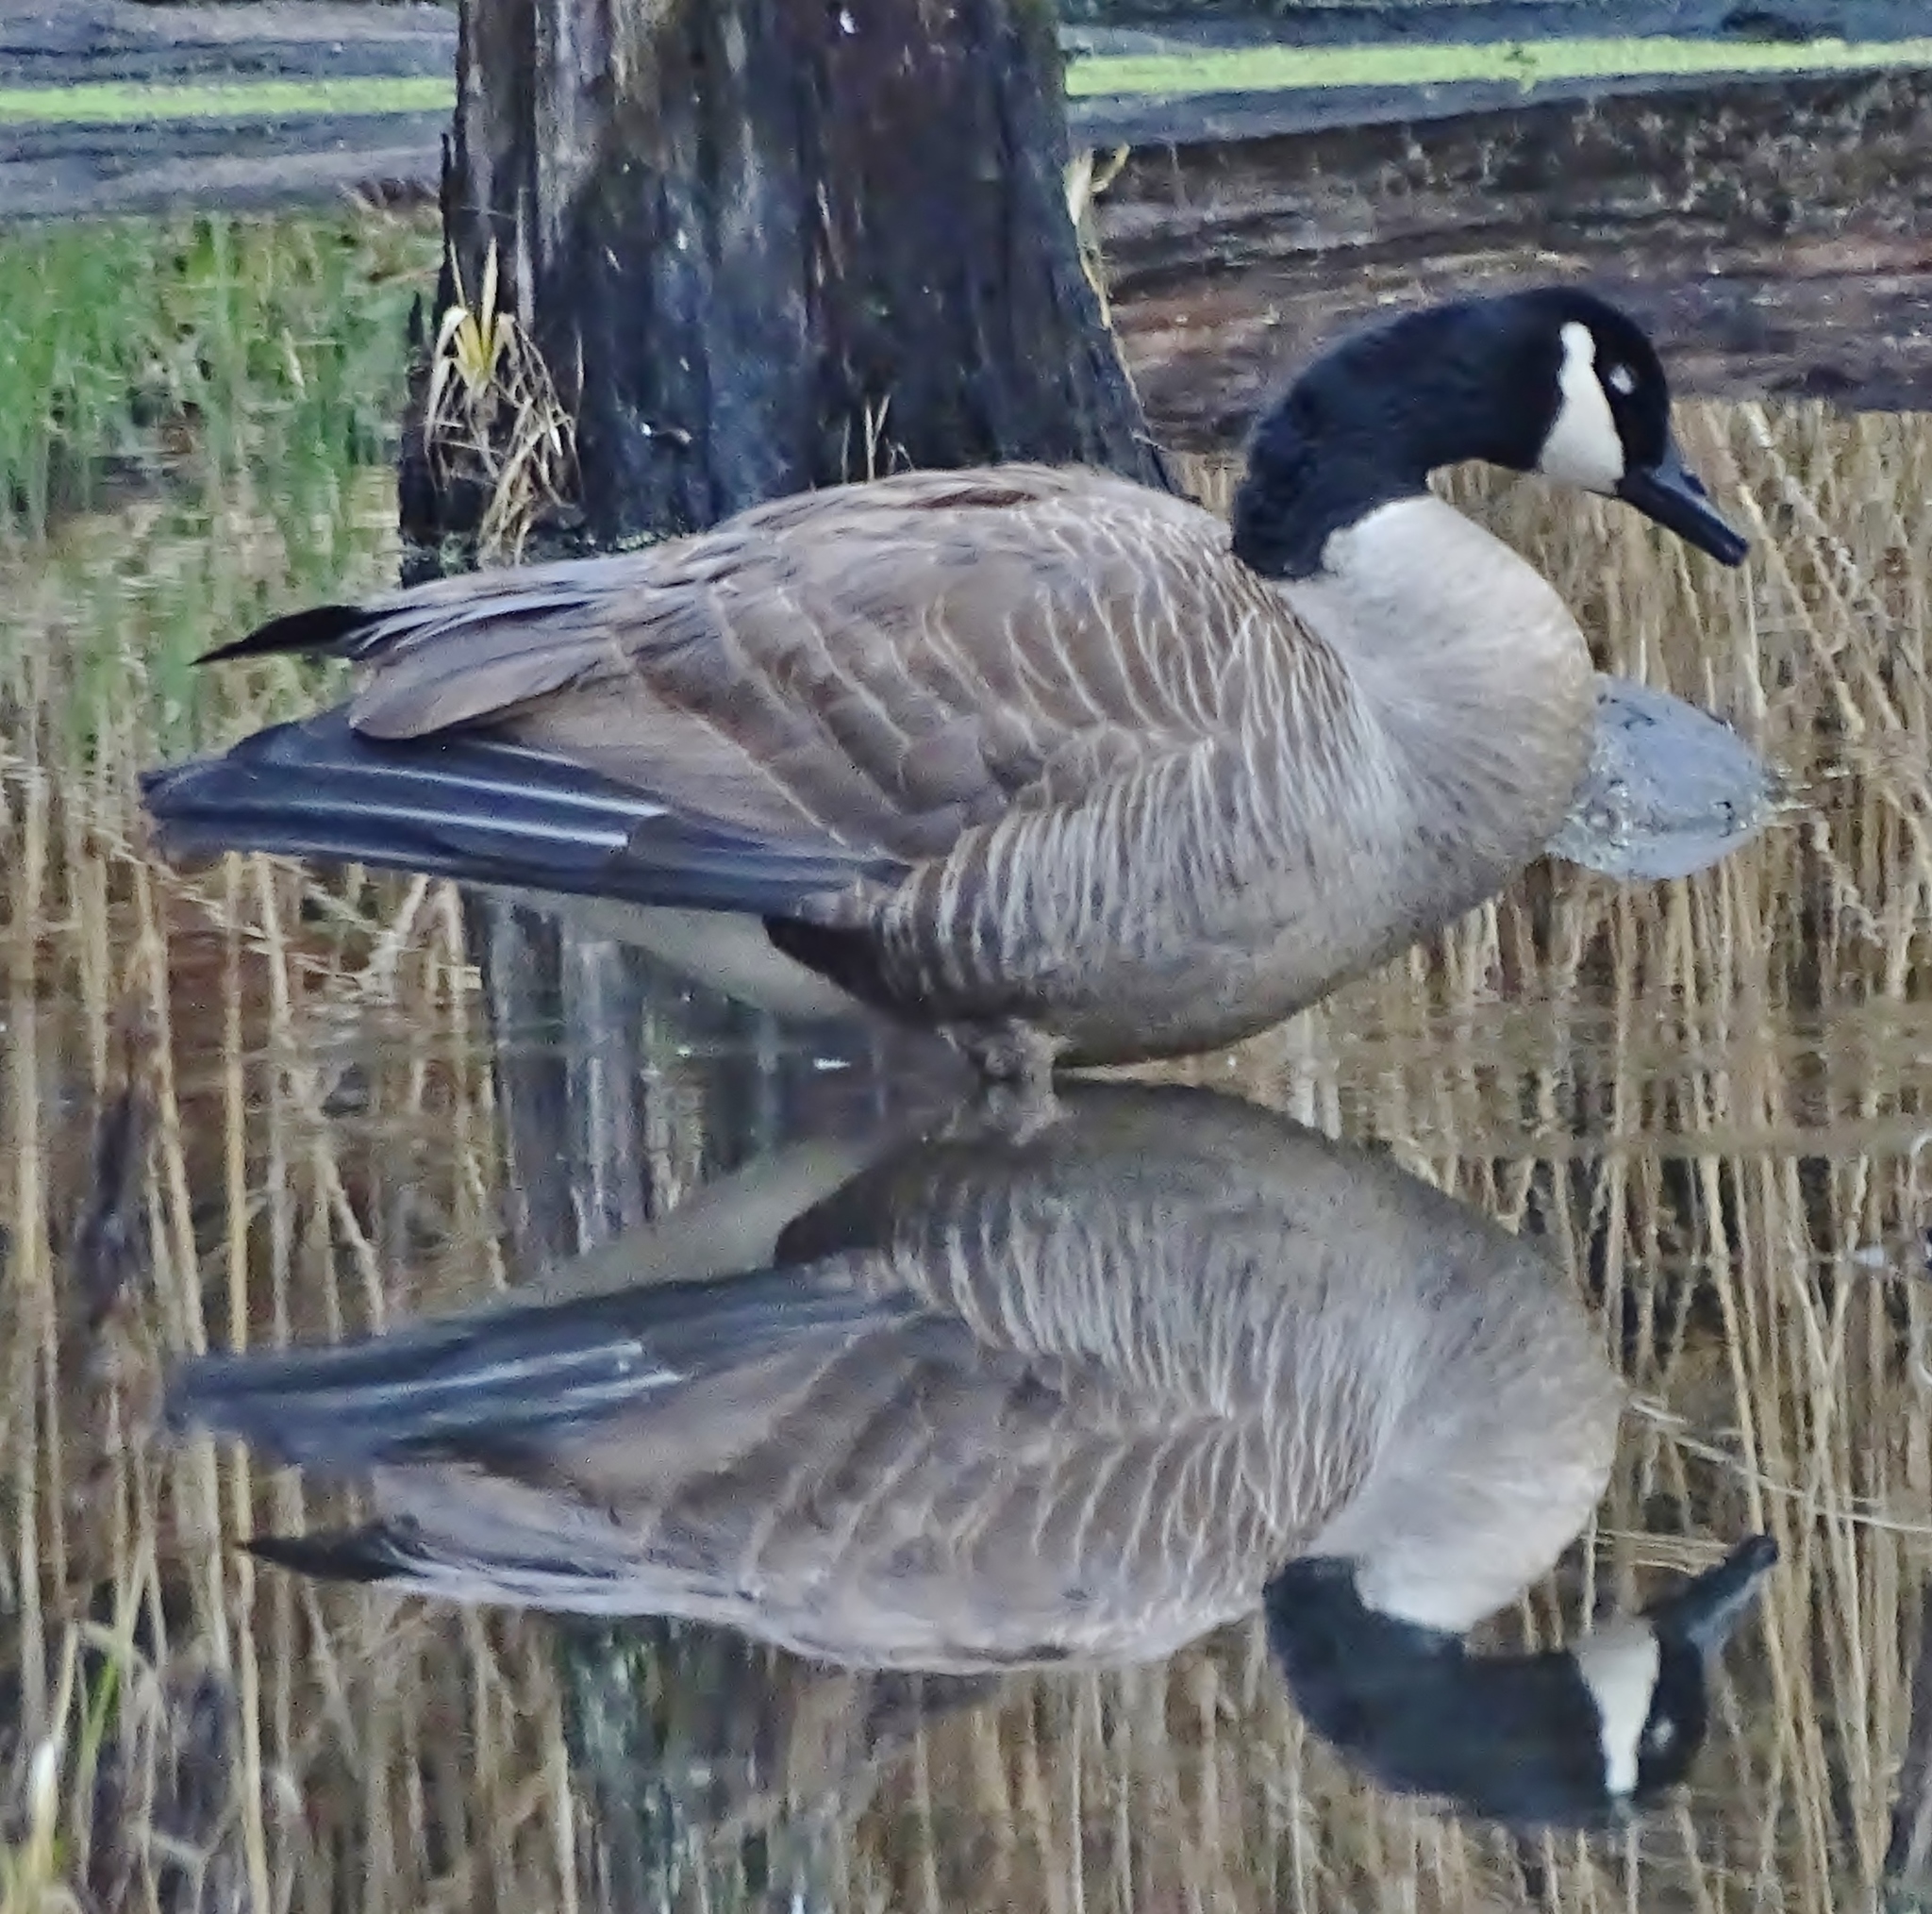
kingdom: Animalia
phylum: Chordata
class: Aves
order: Anseriformes
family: Anatidae
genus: Branta
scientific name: Branta canadensis
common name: Canada goose
